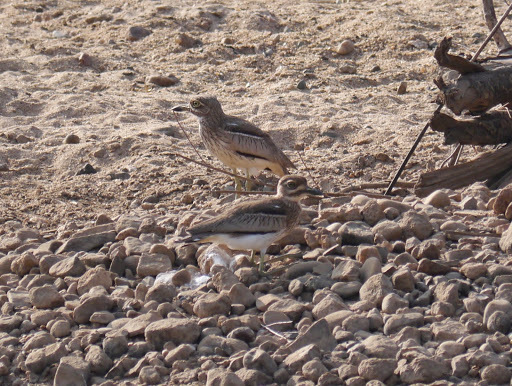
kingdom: Animalia
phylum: Chordata
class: Aves
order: Charadriiformes
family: Burhinidae
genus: Burhinus
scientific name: Burhinus vermiculatus
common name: Water thick-knee
